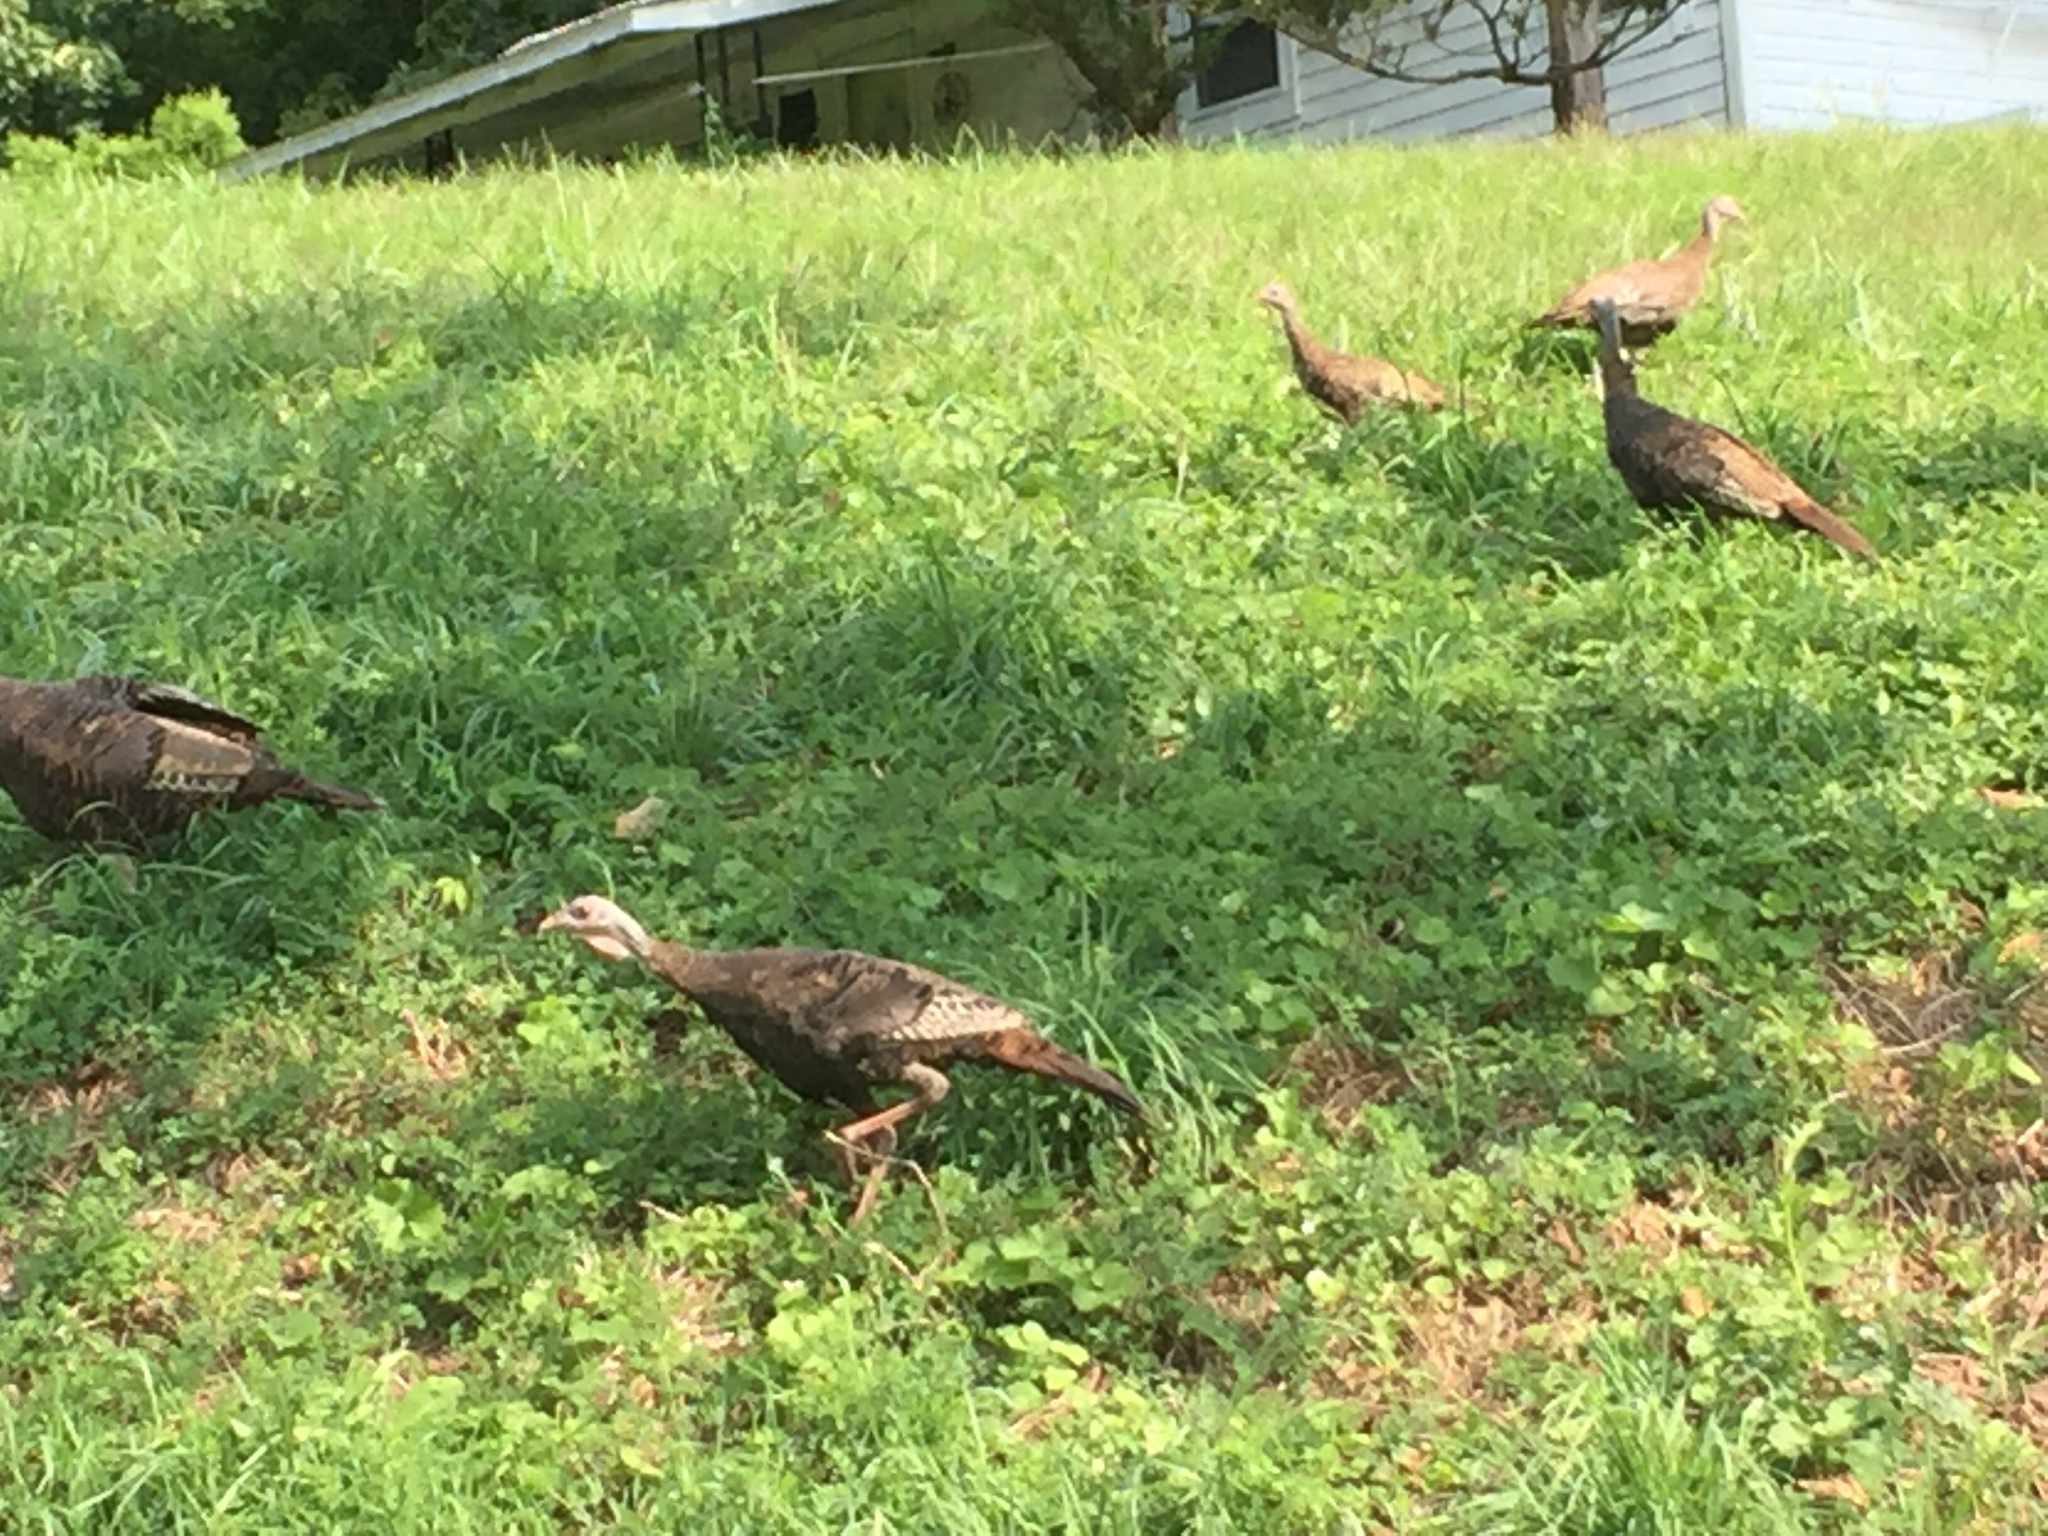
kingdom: Animalia
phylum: Chordata
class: Aves
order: Galliformes
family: Phasianidae
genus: Meleagris
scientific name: Meleagris gallopavo
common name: Wild turkey
